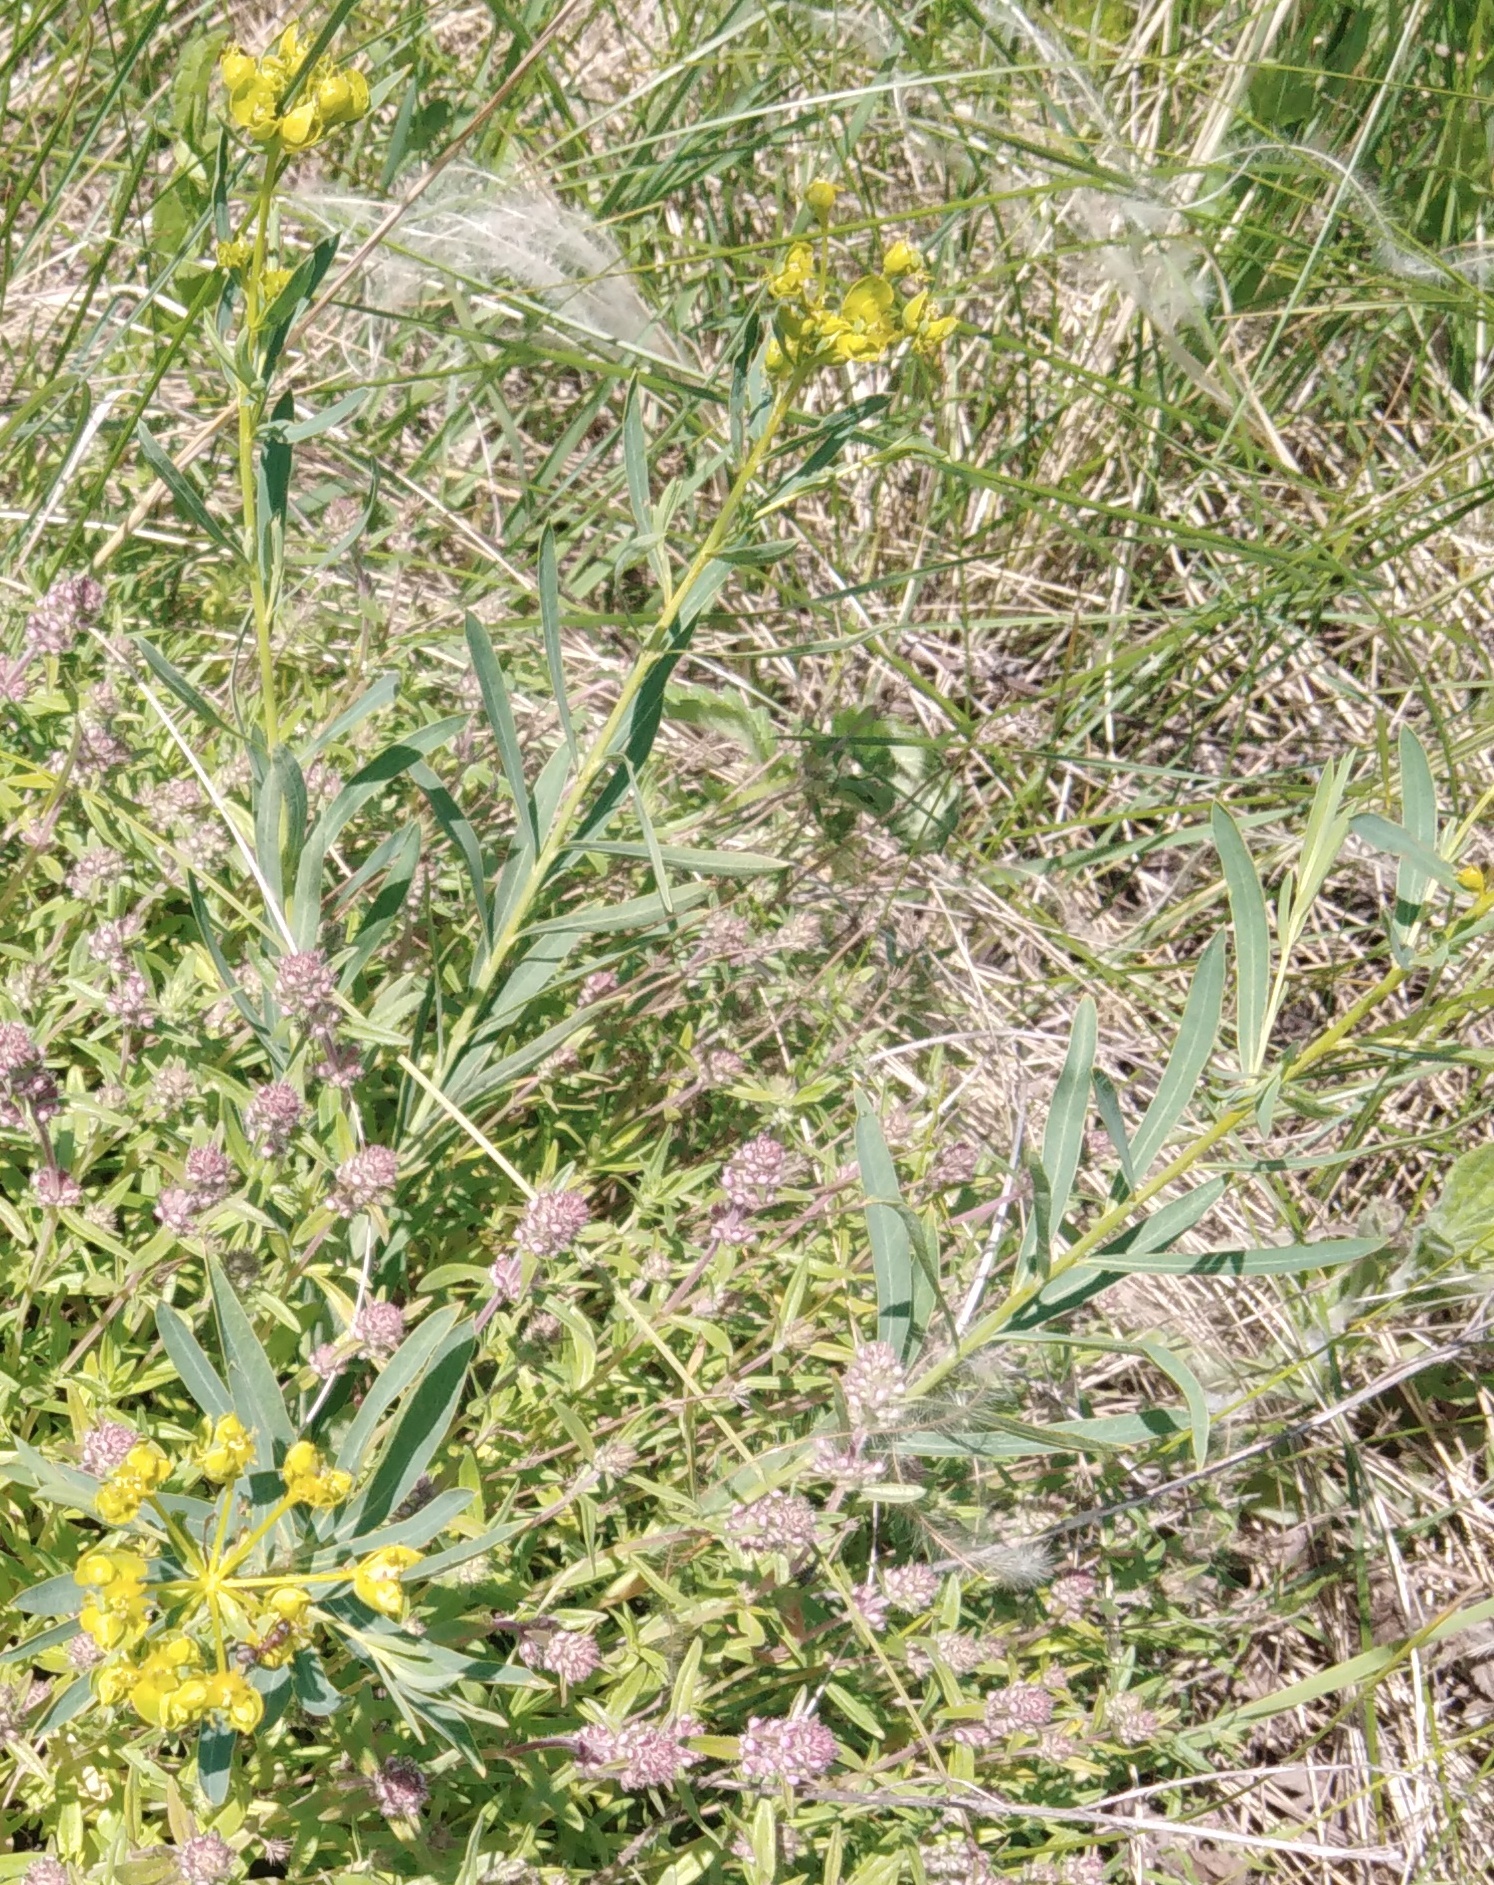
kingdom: Plantae
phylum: Tracheophyta
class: Magnoliopsida
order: Malpighiales
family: Euphorbiaceae
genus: Euphorbia
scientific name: Euphorbia virgata
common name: Leafy spurge
